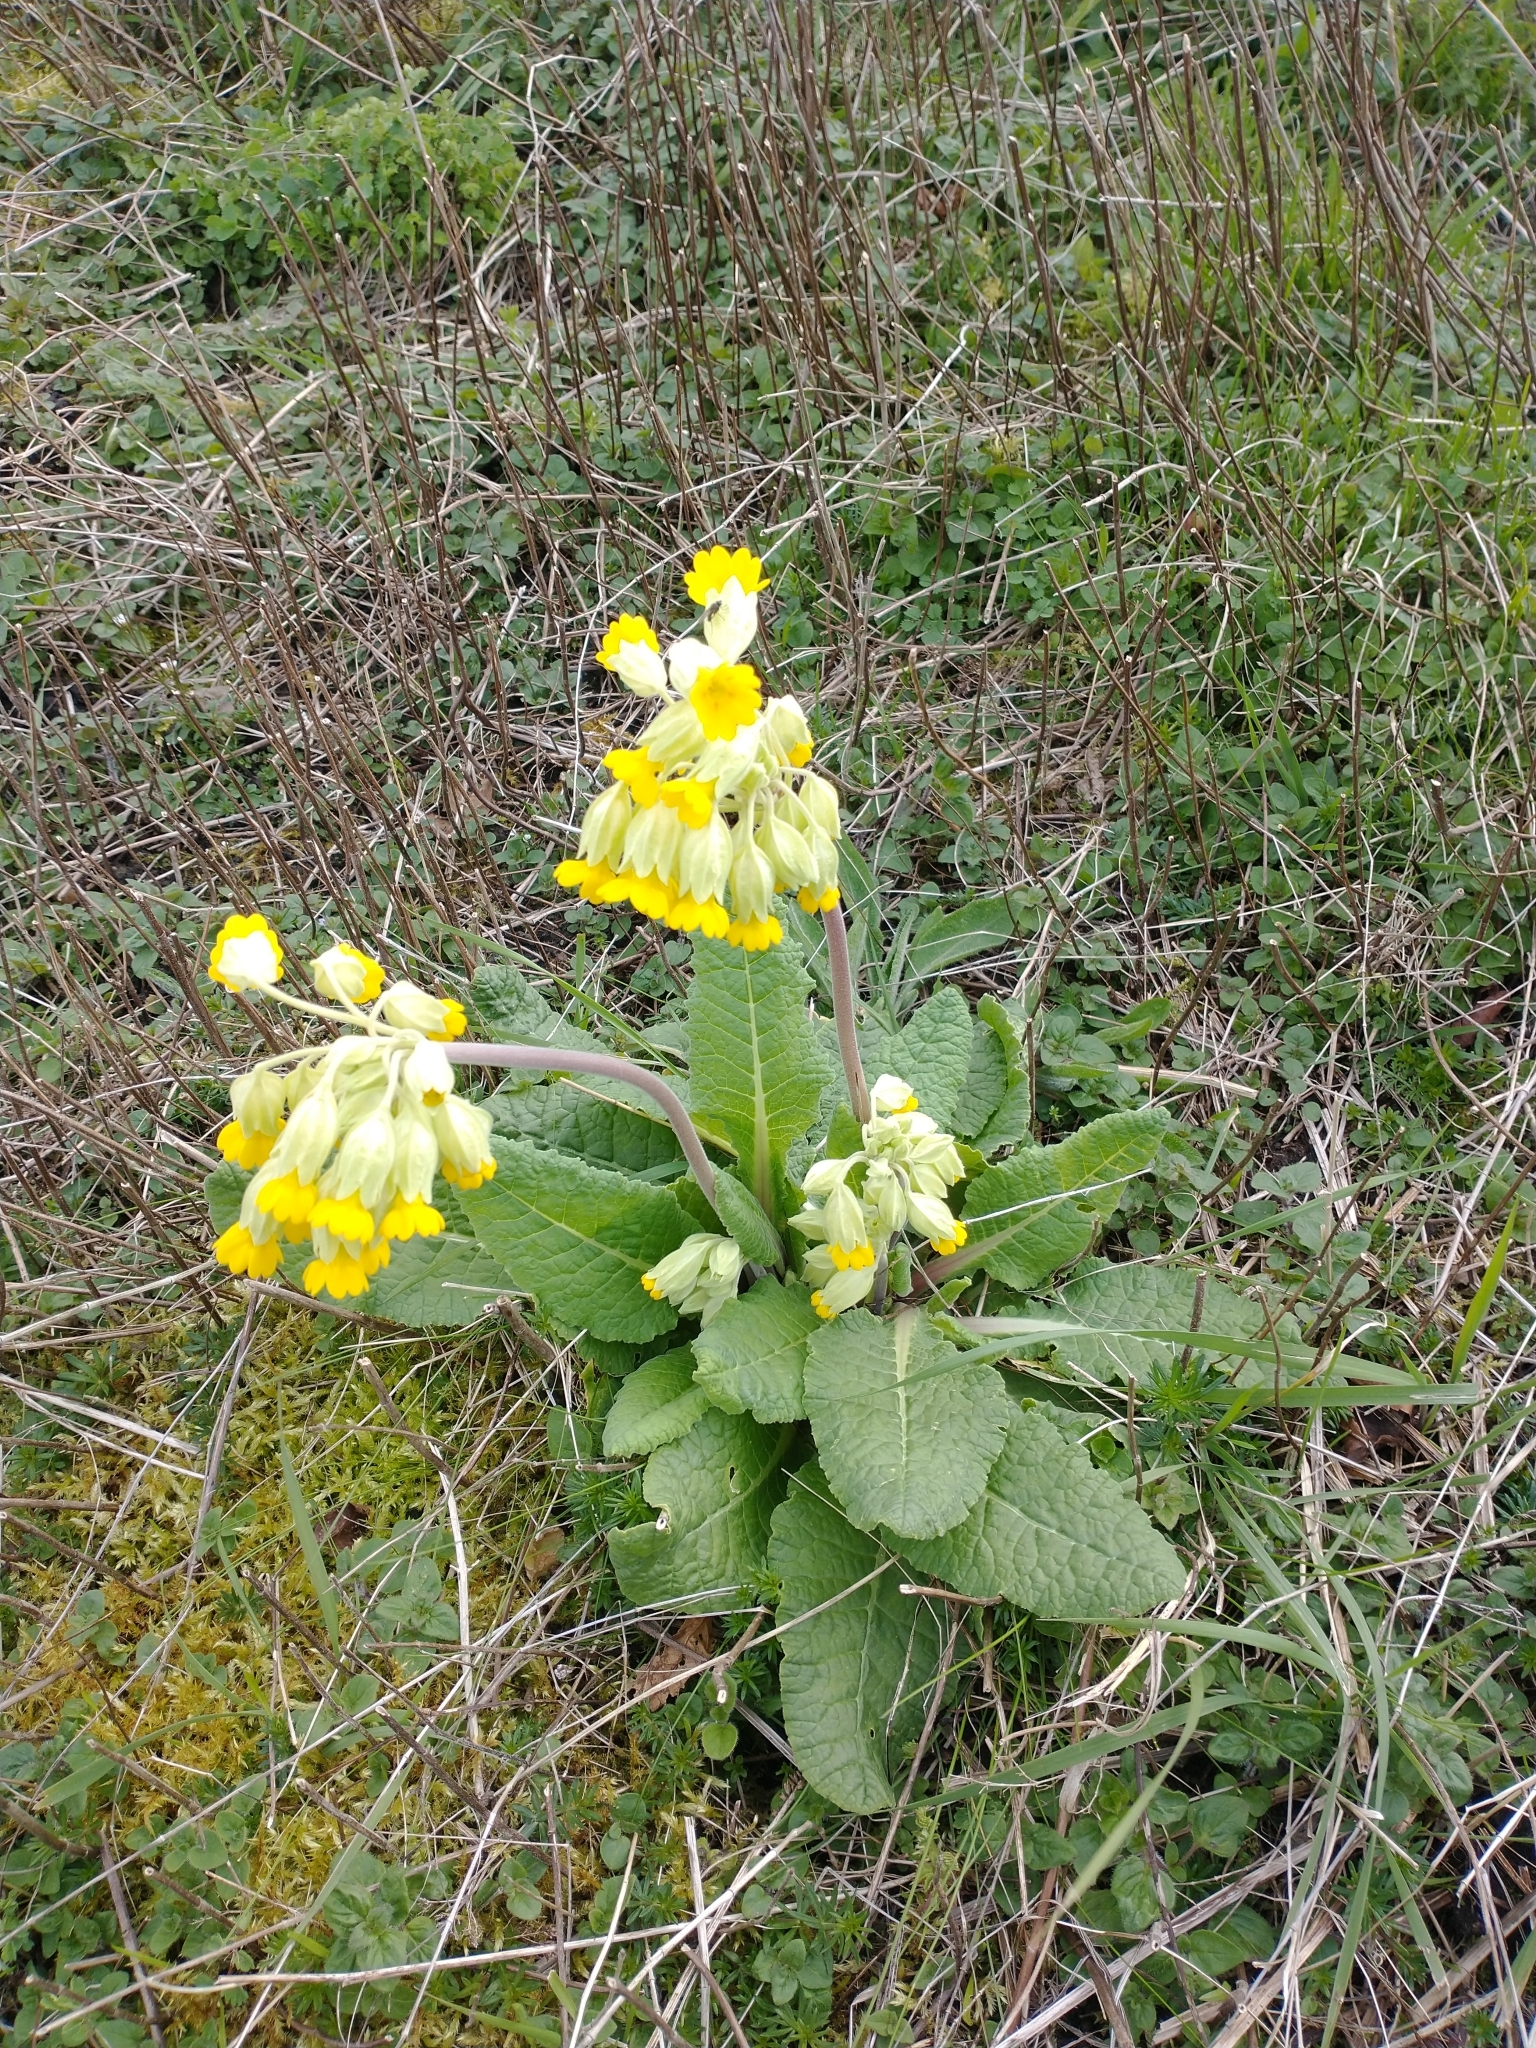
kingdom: Plantae
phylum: Tracheophyta
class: Magnoliopsida
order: Ericales
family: Primulaceae
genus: Primula
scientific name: Primula veris
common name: Cowslip
